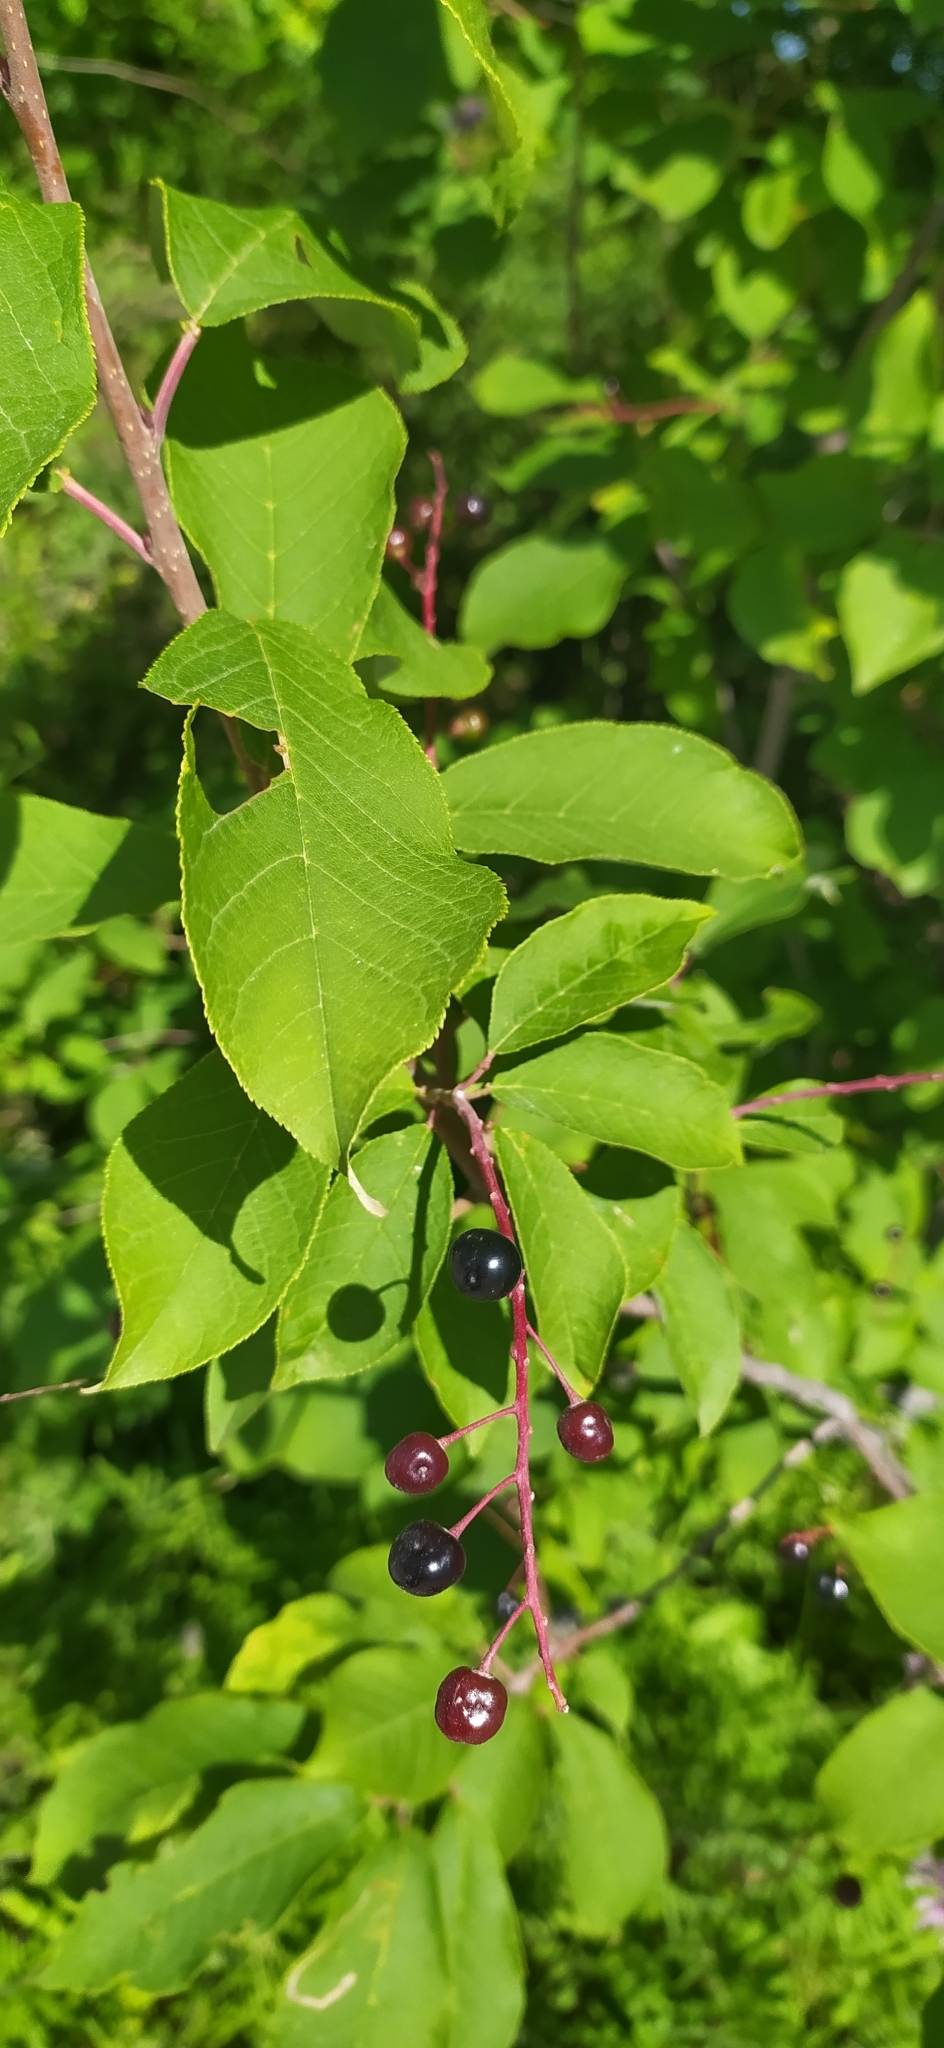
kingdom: Plantae
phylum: Tracheophyta
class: Magnoliopsida
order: Rosales
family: Rosaceae
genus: Prunus
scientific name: Prunus padus
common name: Bird cherry
